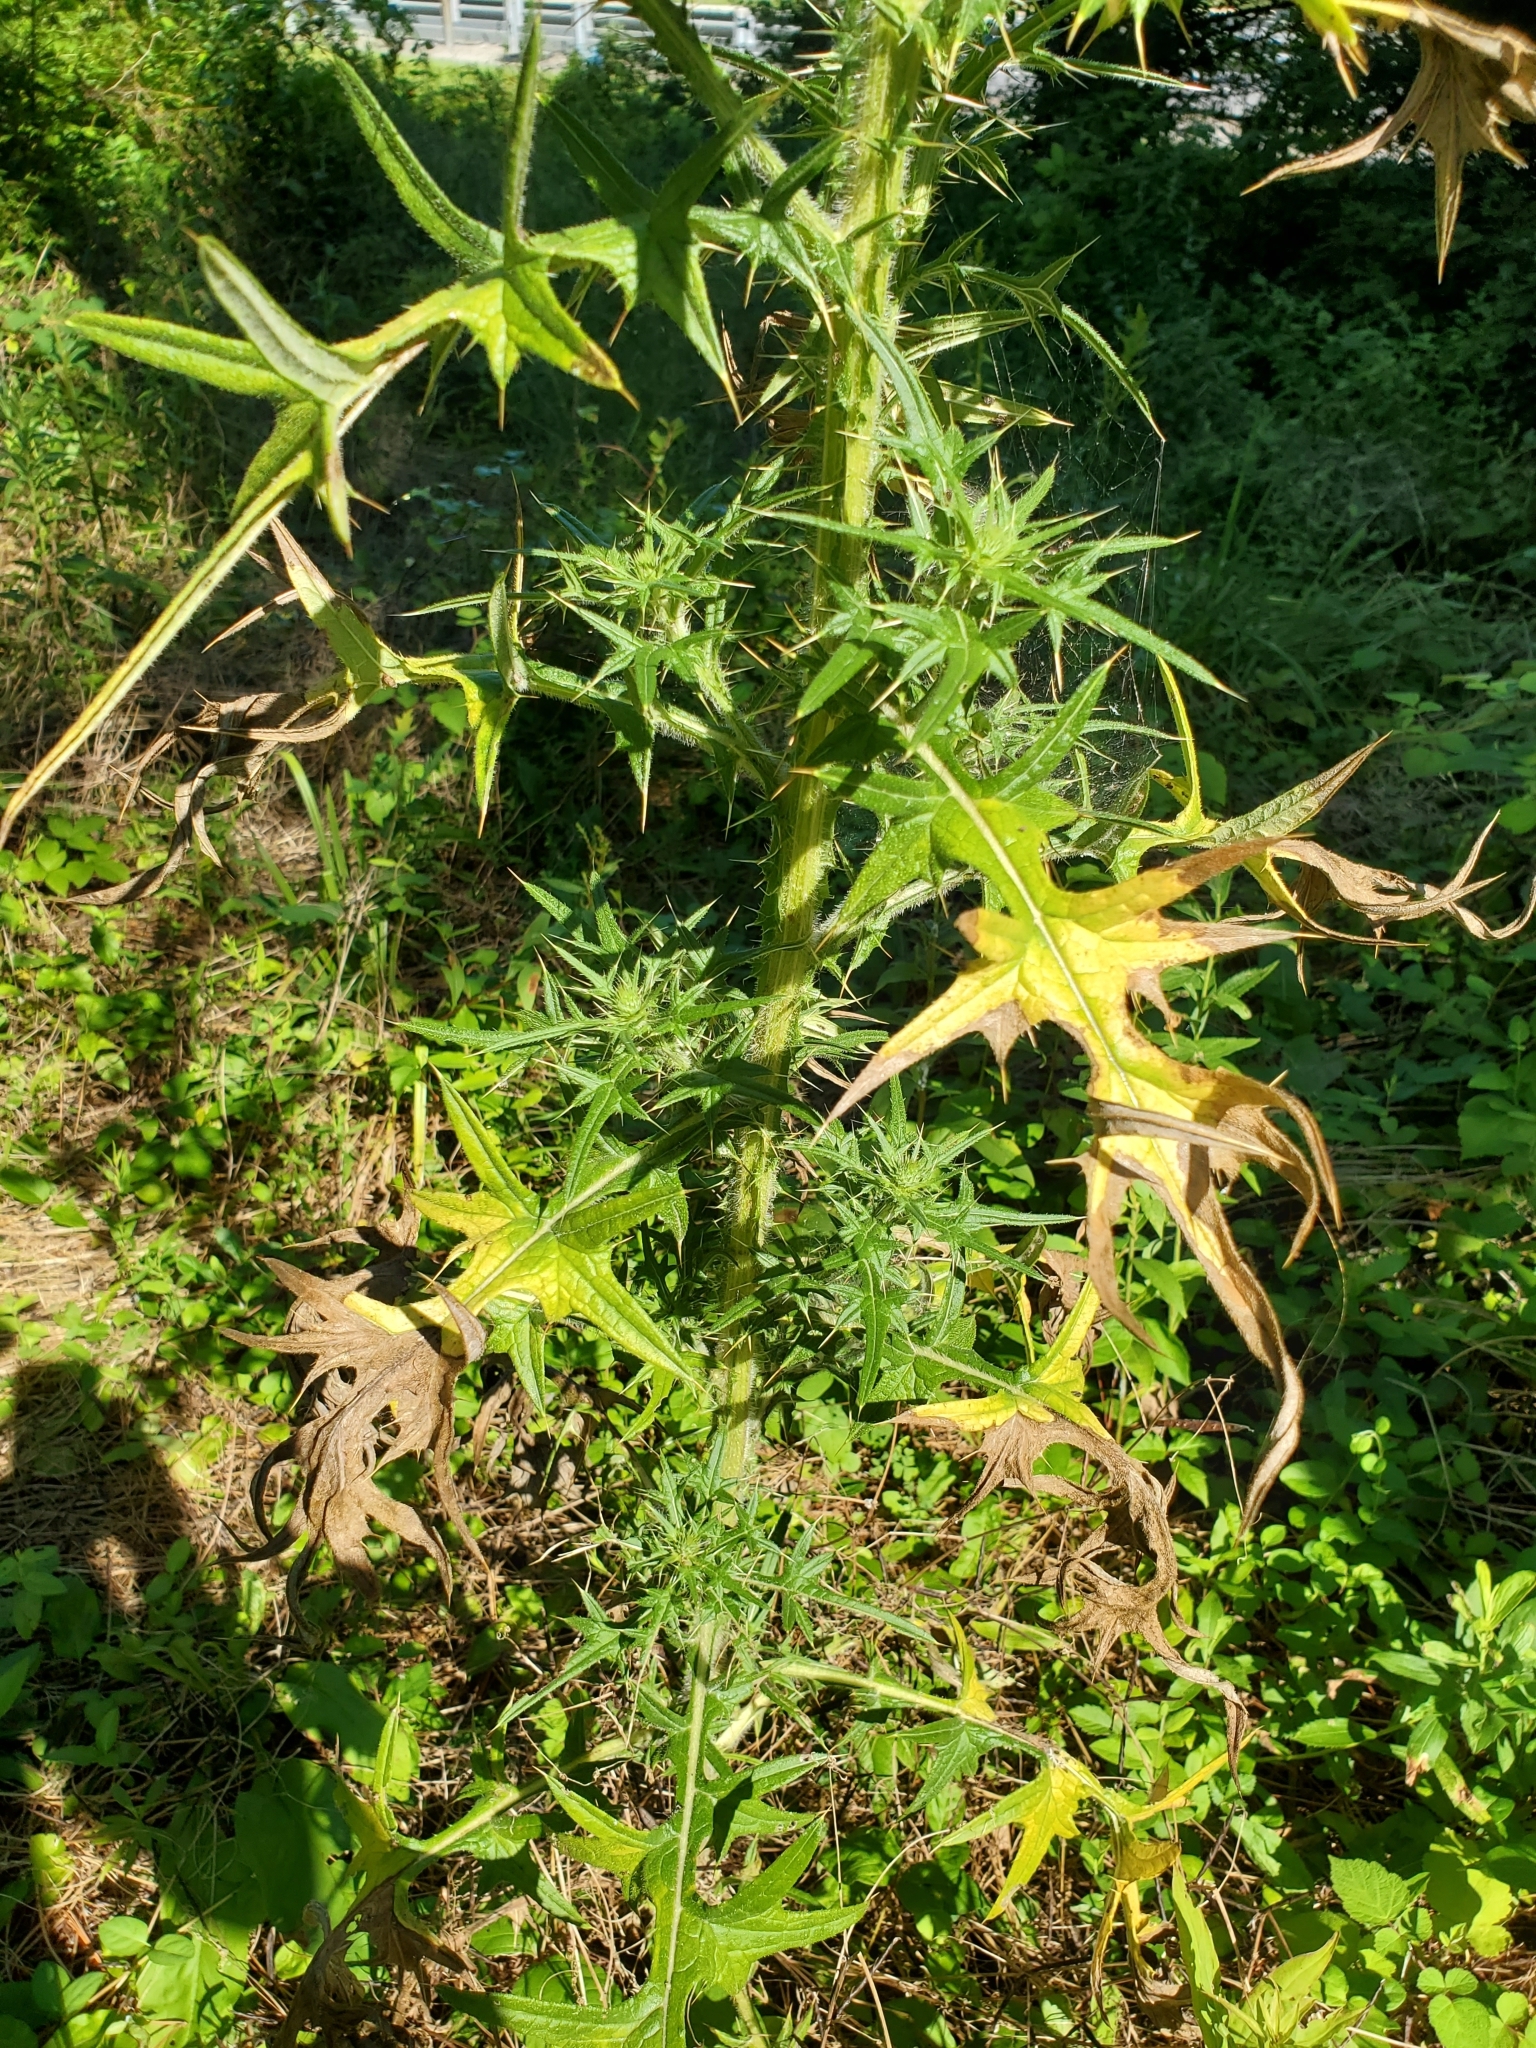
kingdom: Plantae
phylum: Tracheophyta
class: Magnoliopsida
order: Asterales
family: Asteraceae
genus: Cirsium
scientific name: Cirsium vulgare
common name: Bull thistle
